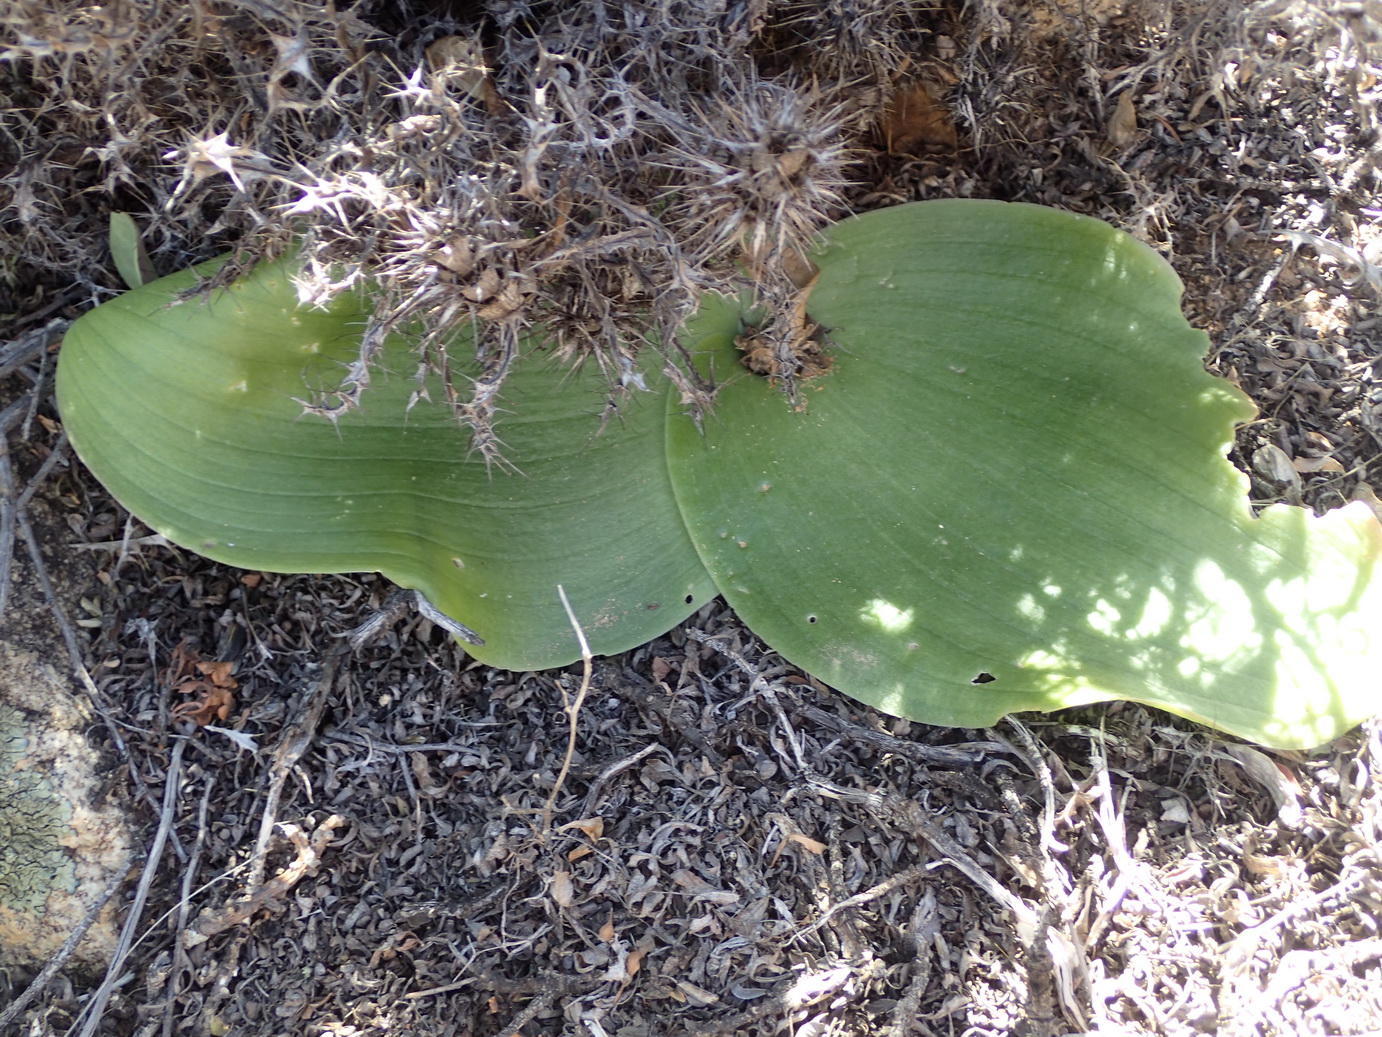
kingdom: Plantae
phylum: Tracheophyta
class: Liliopsida
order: Asparagales
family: Asparagaceae
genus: Massonia
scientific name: Massonia bifolia
